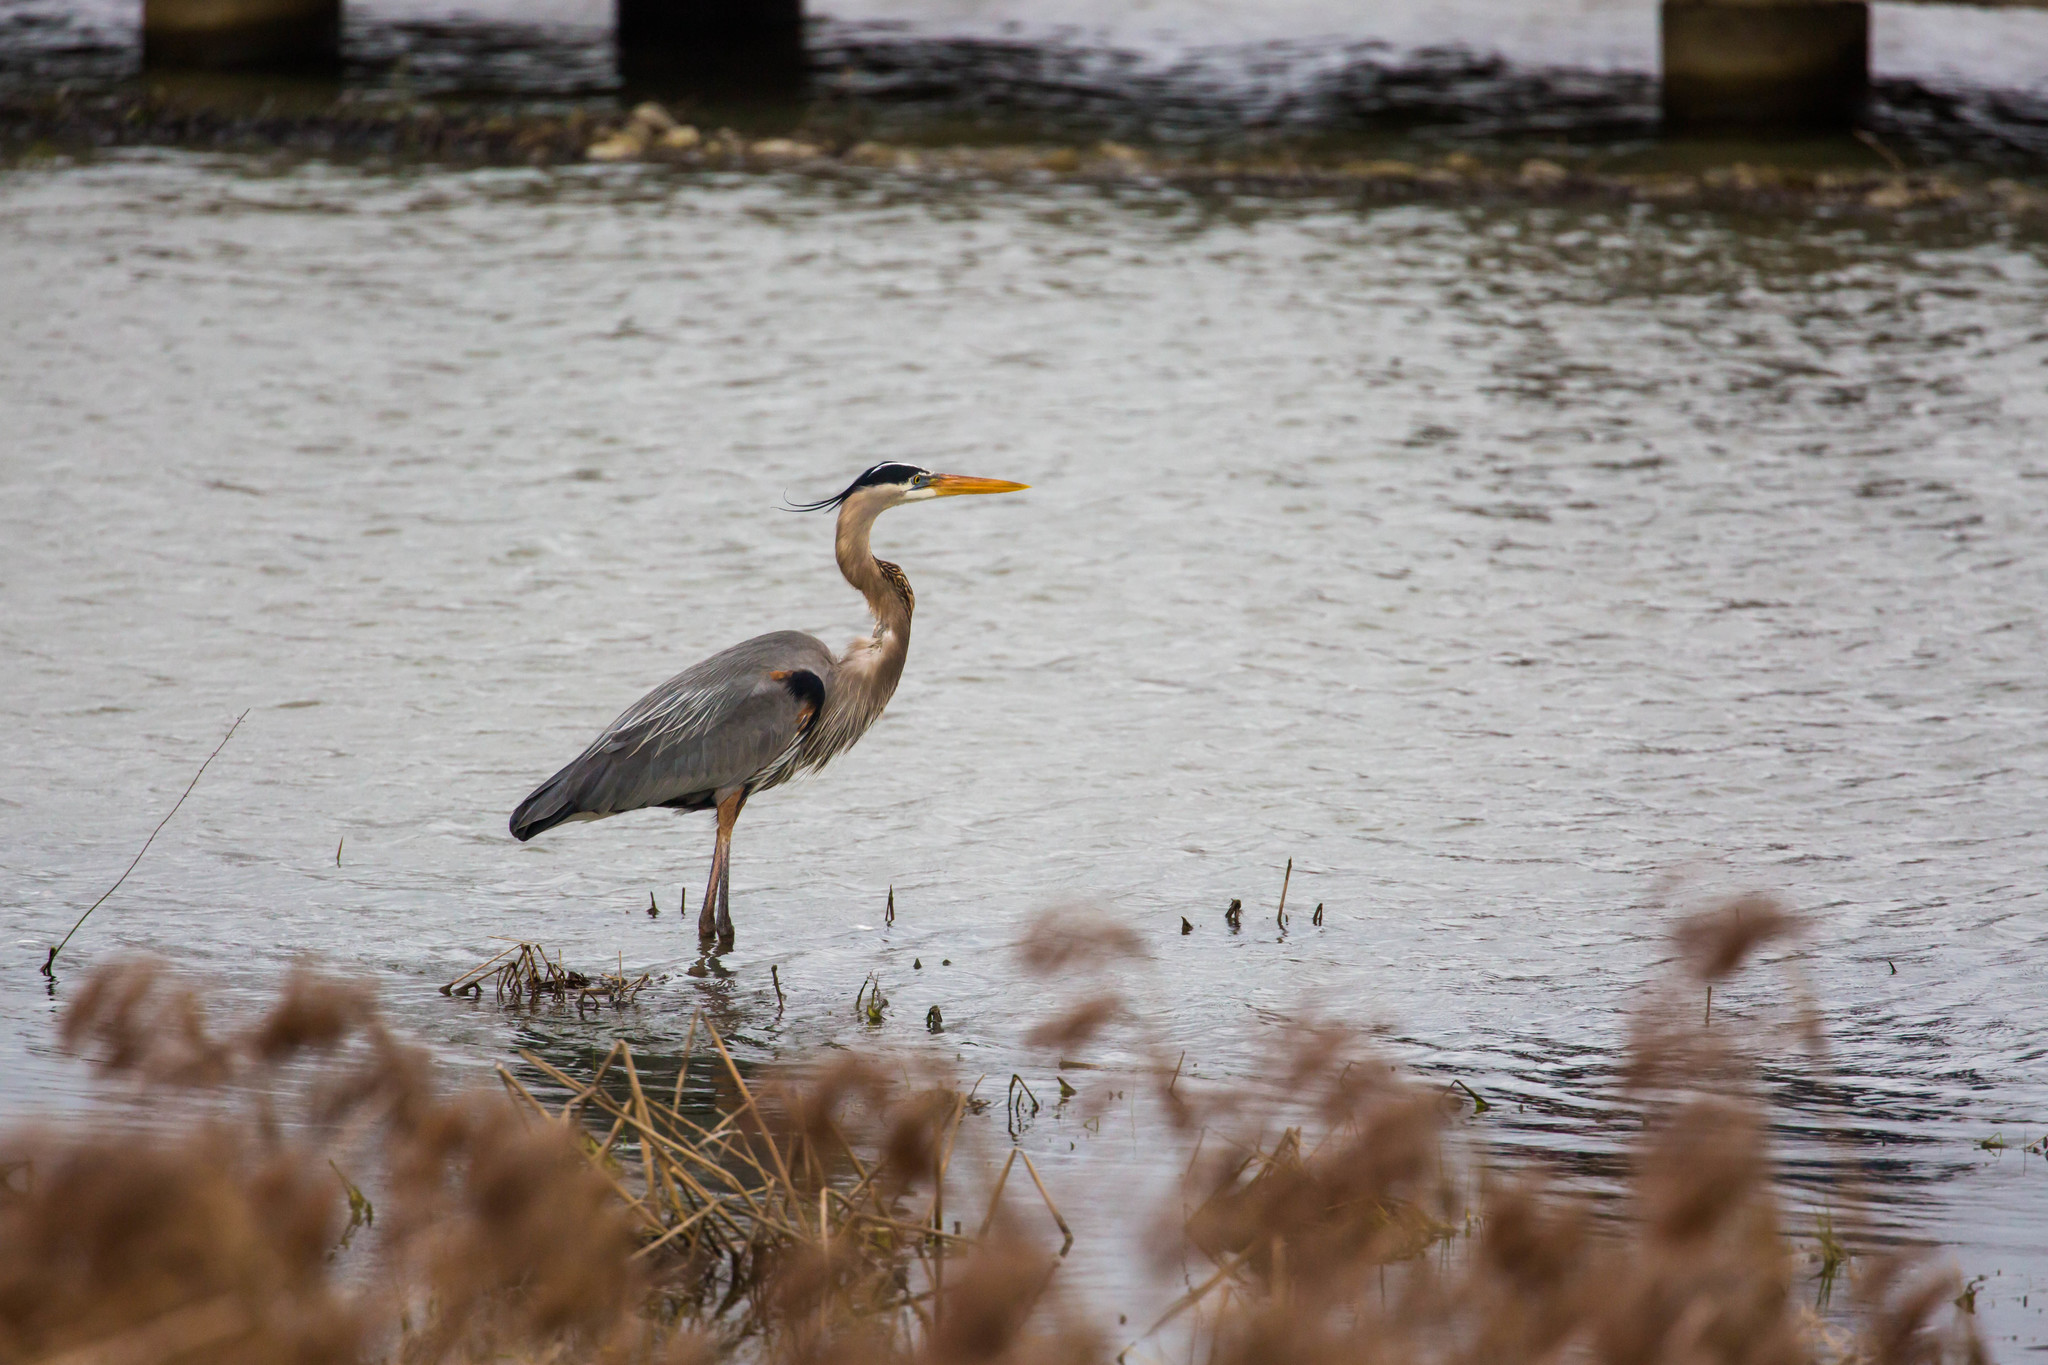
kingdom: Animalia
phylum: Chordata
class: Aves
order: Pelecaniformes
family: Ardeidae
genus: Ardea
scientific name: Ardea herodias
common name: Great blue heron
